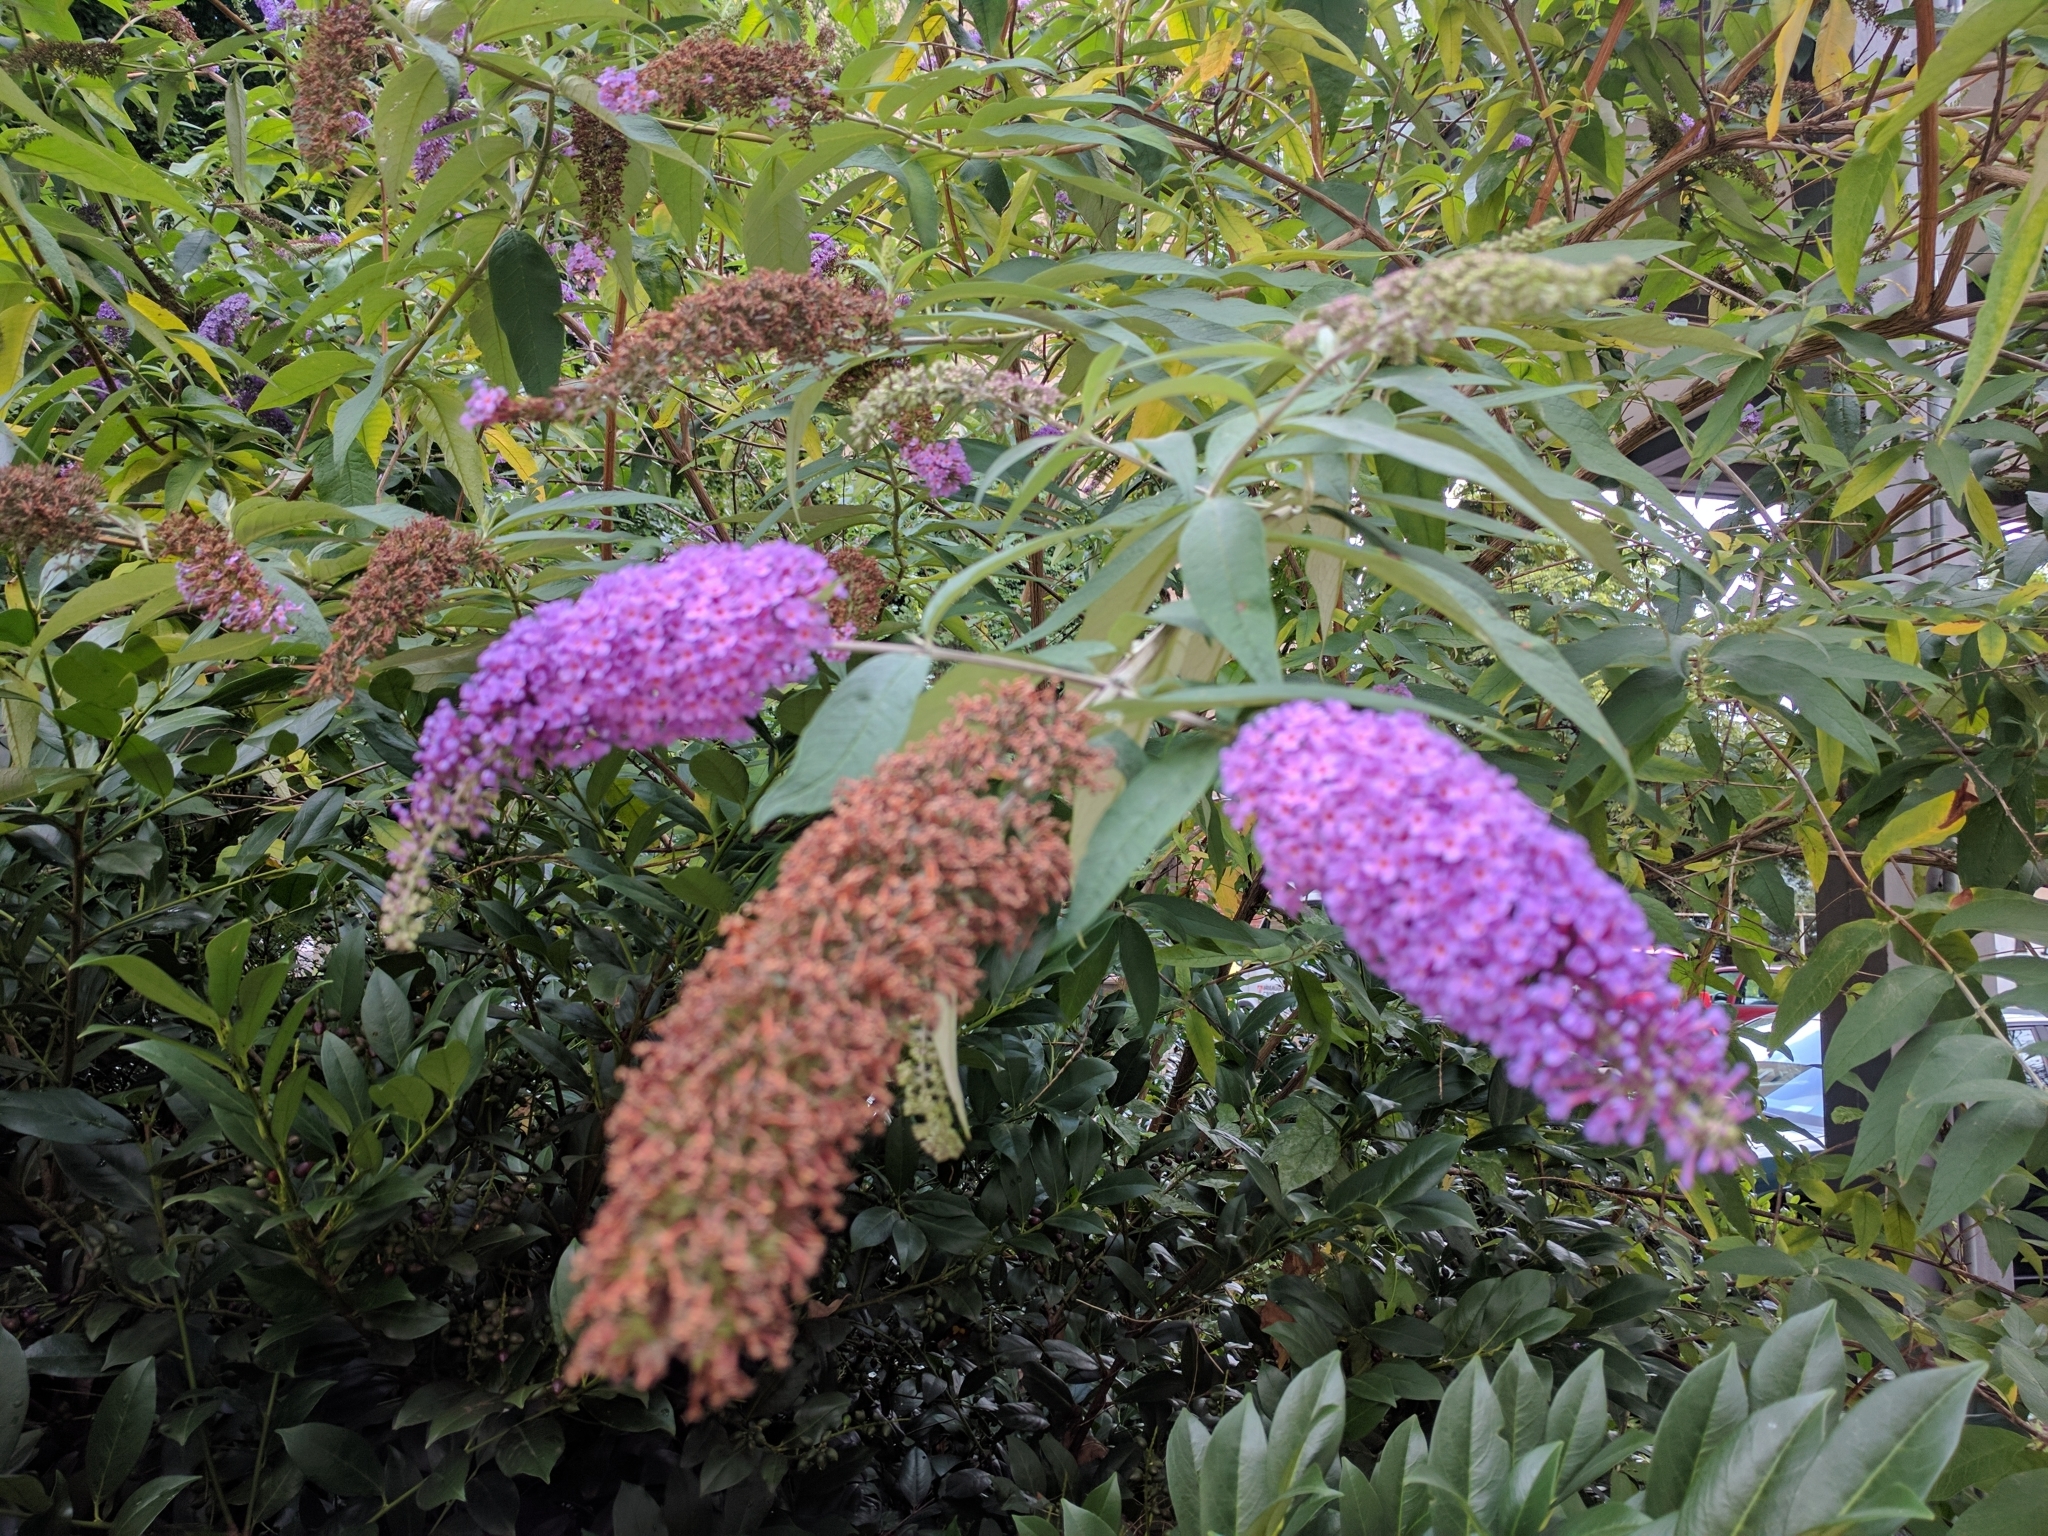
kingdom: Plantae
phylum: Tracheophyta
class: Magnoliopsida
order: Lamiales
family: Scrophulariaceae
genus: Buddleja
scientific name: Buddleja davidii
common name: Butterfly-bush
